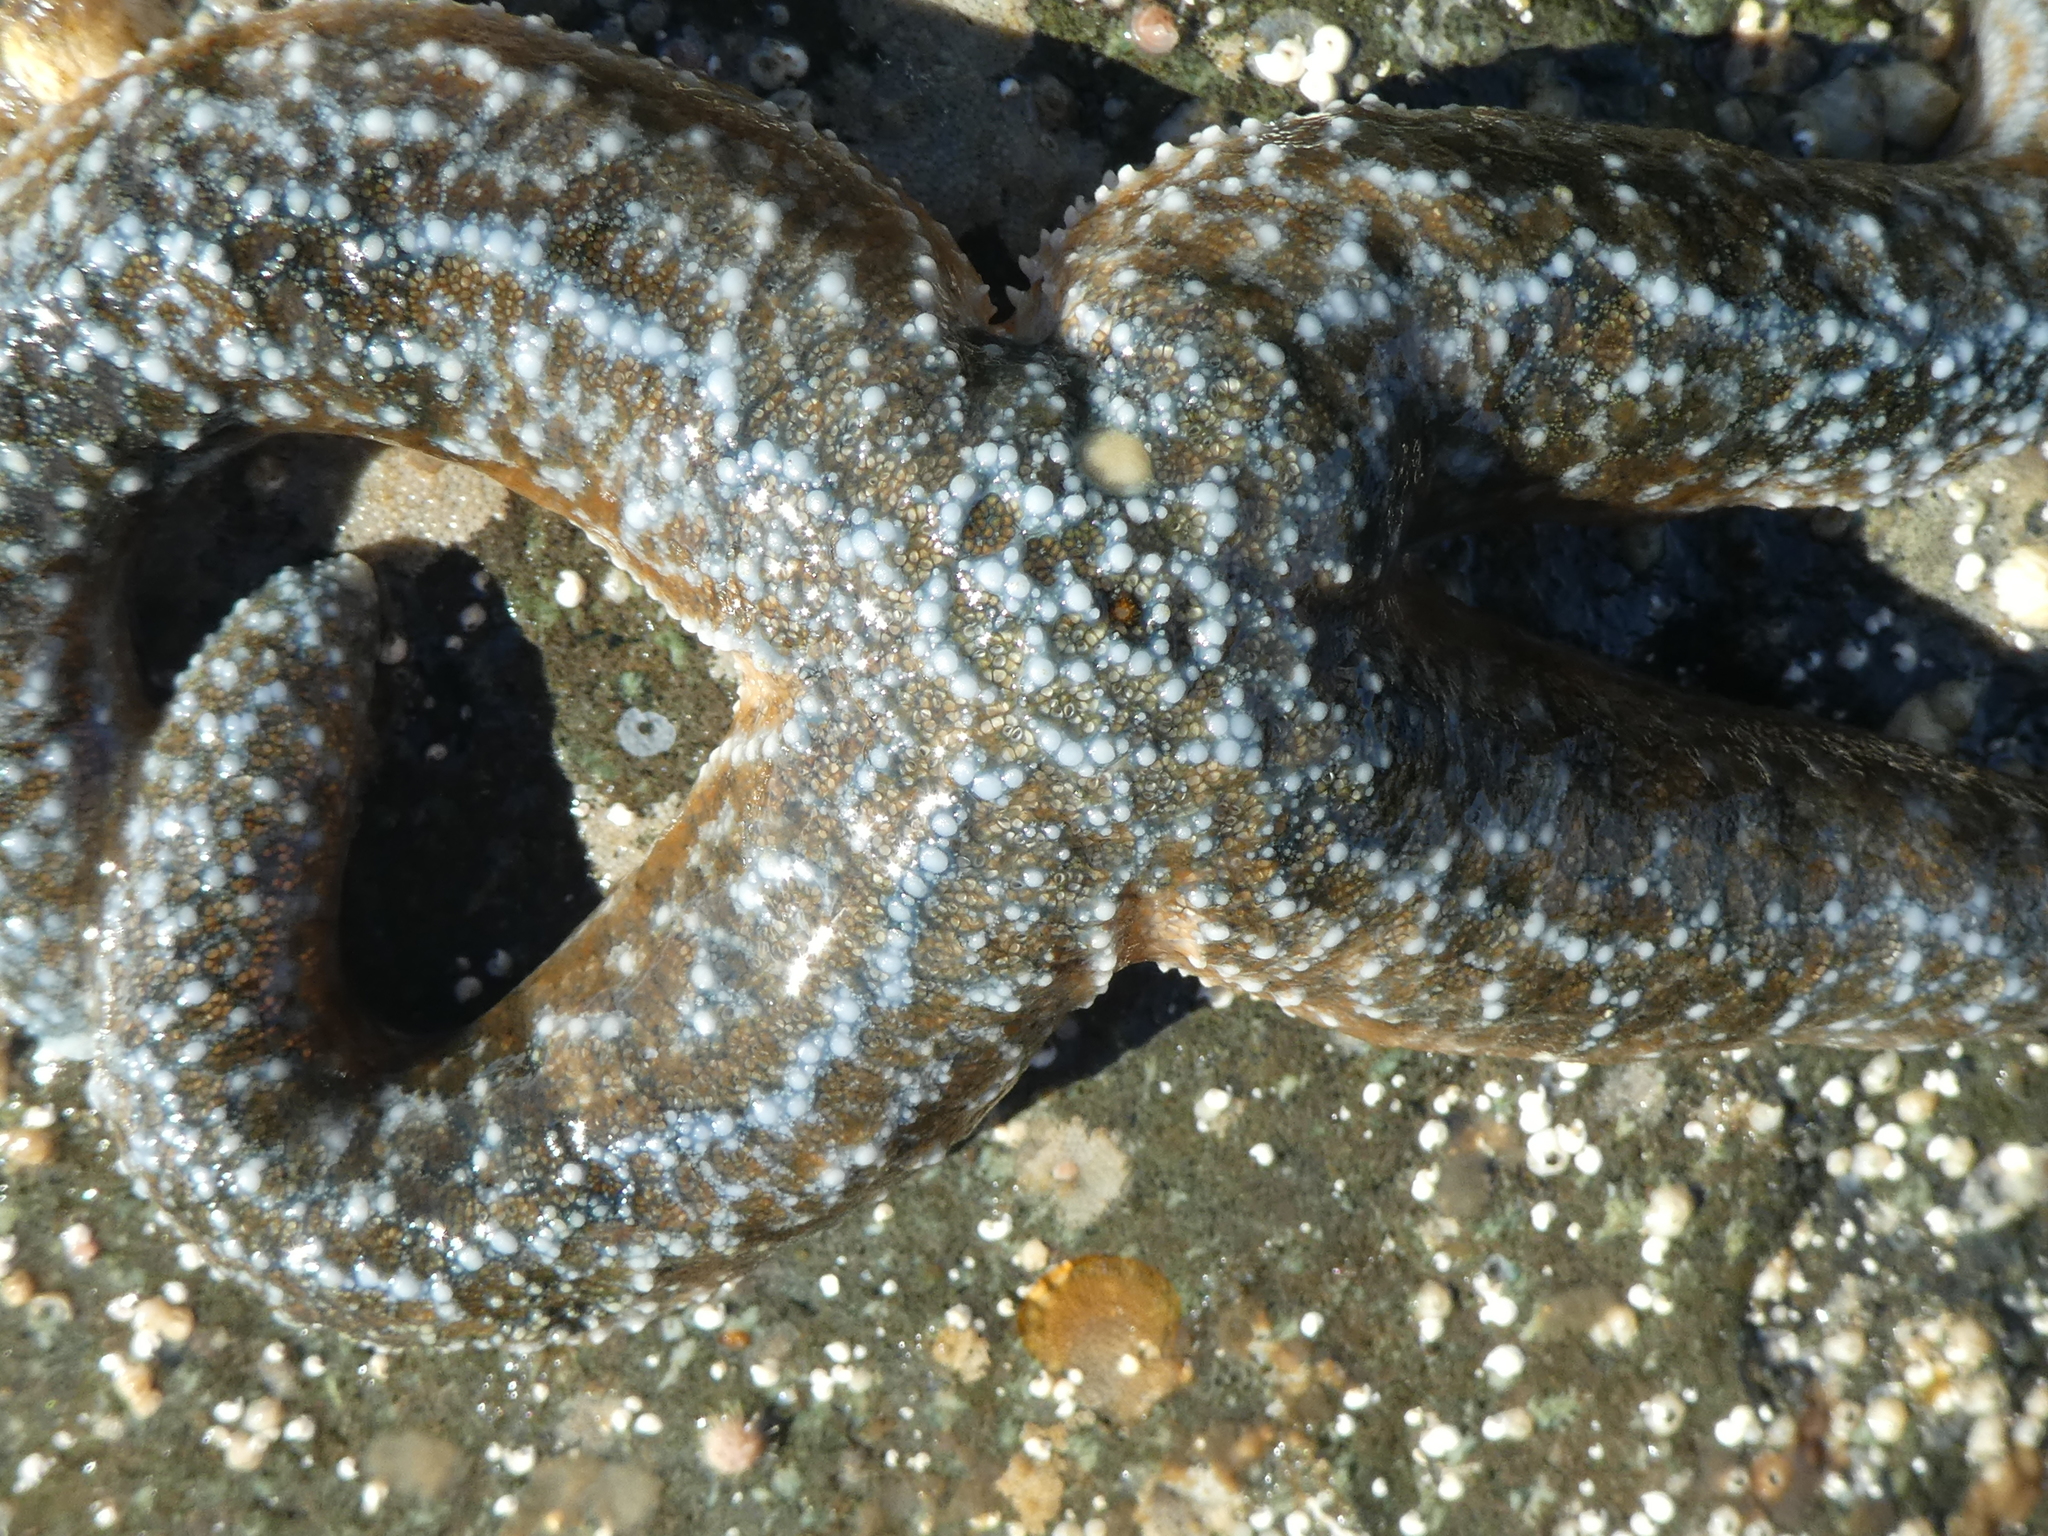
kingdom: Animalia
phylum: Echinodermata
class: Asteroidea
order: Forcipulatida
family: Asteriidae
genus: Evasterias
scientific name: Evasterias troschelii
